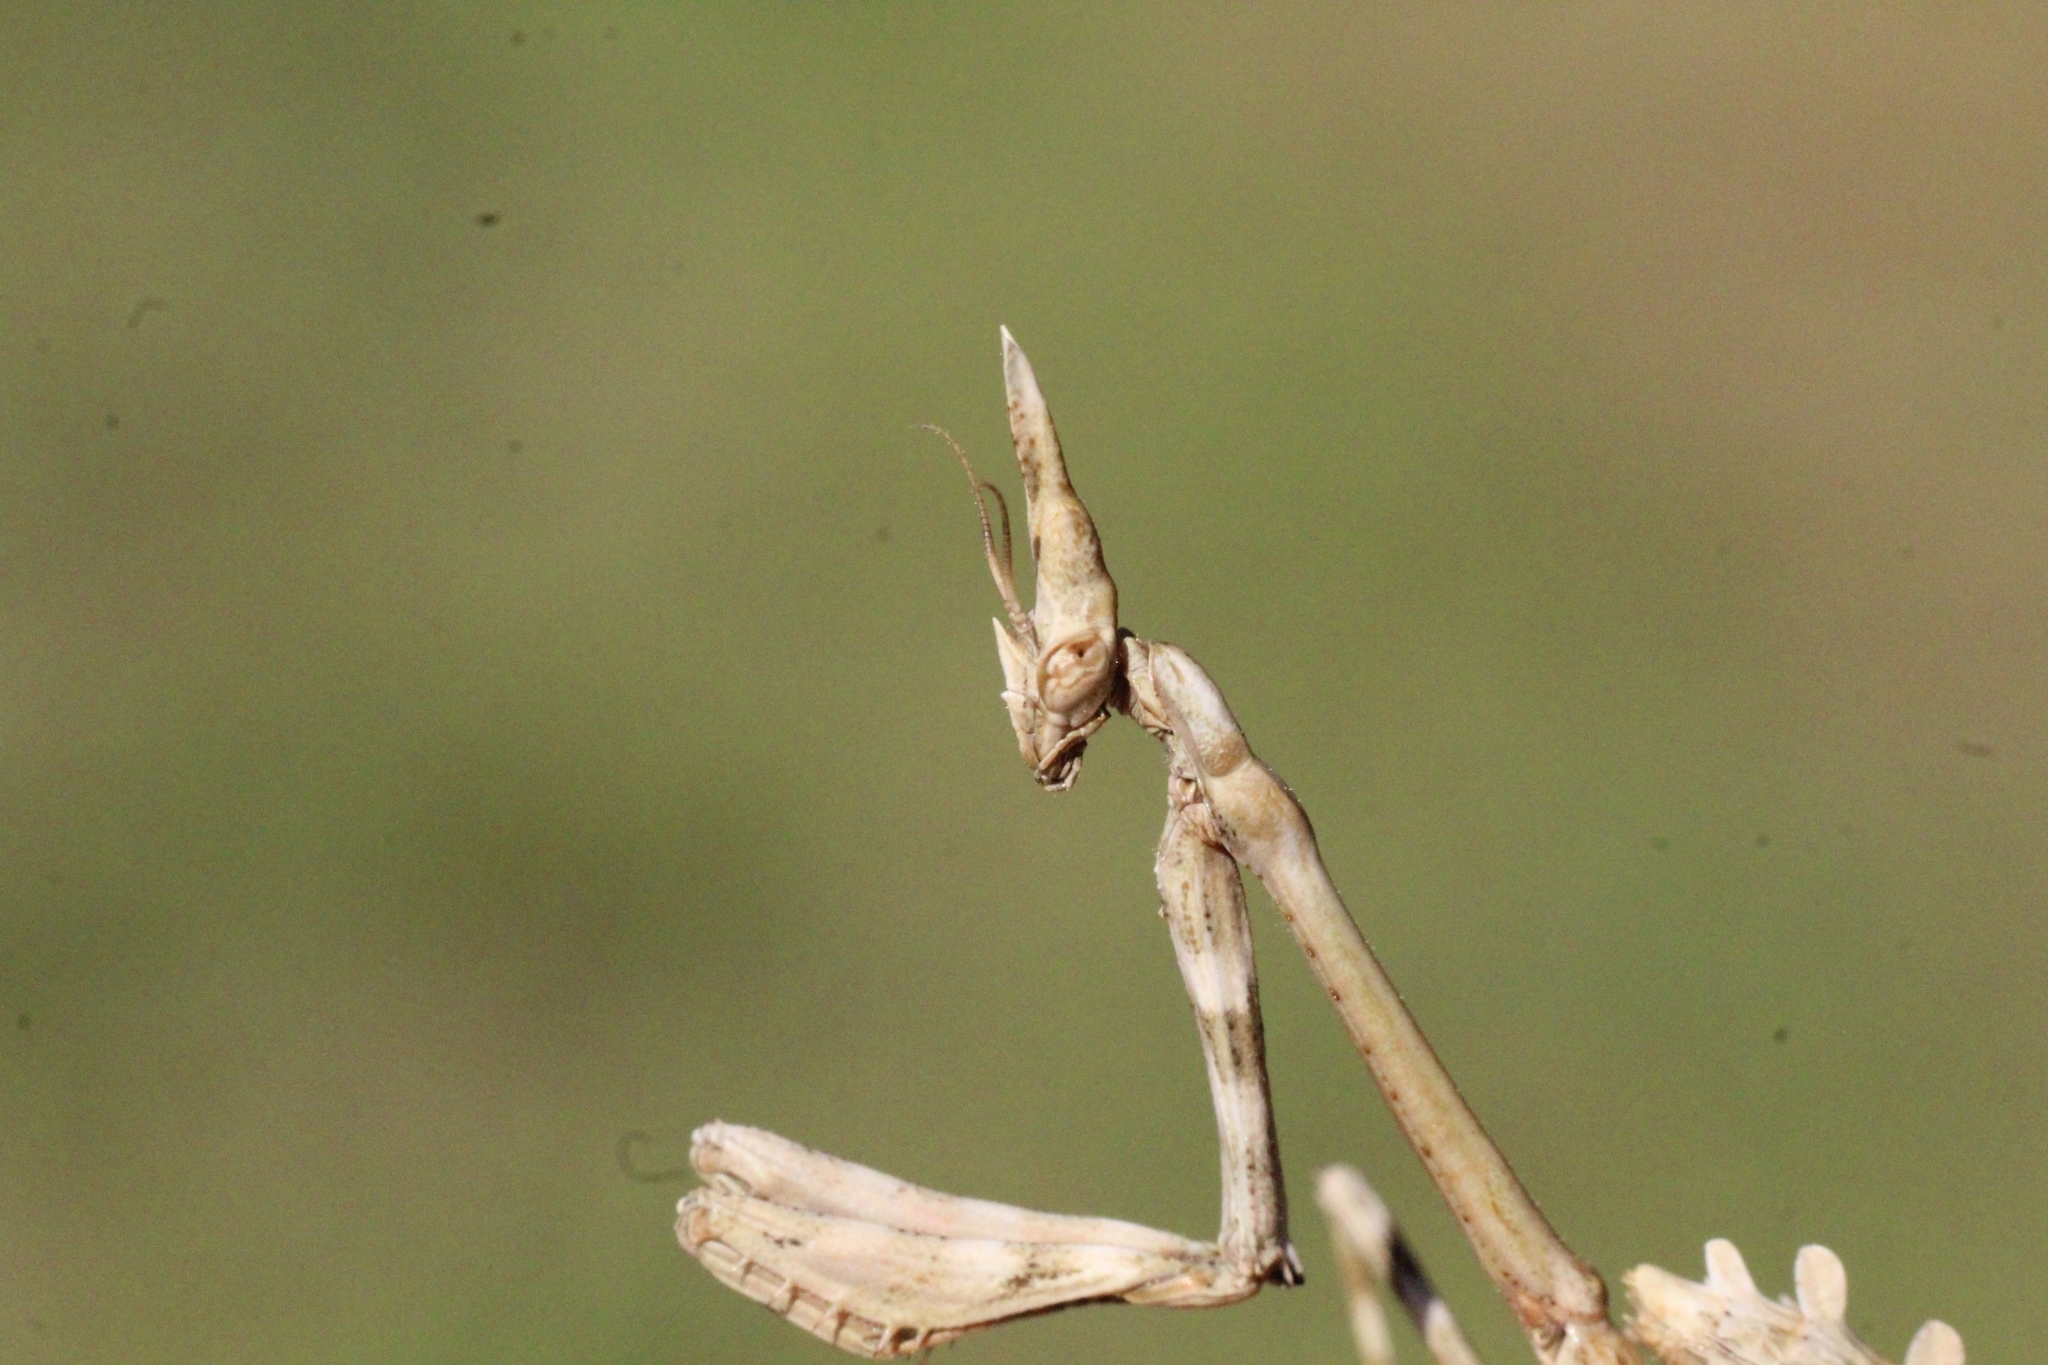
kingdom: Animalia
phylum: Arthropoda
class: Insecta
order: Mantodea
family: Empusidae
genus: Empusa
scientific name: Empusa pennata
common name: Conehead mantis
